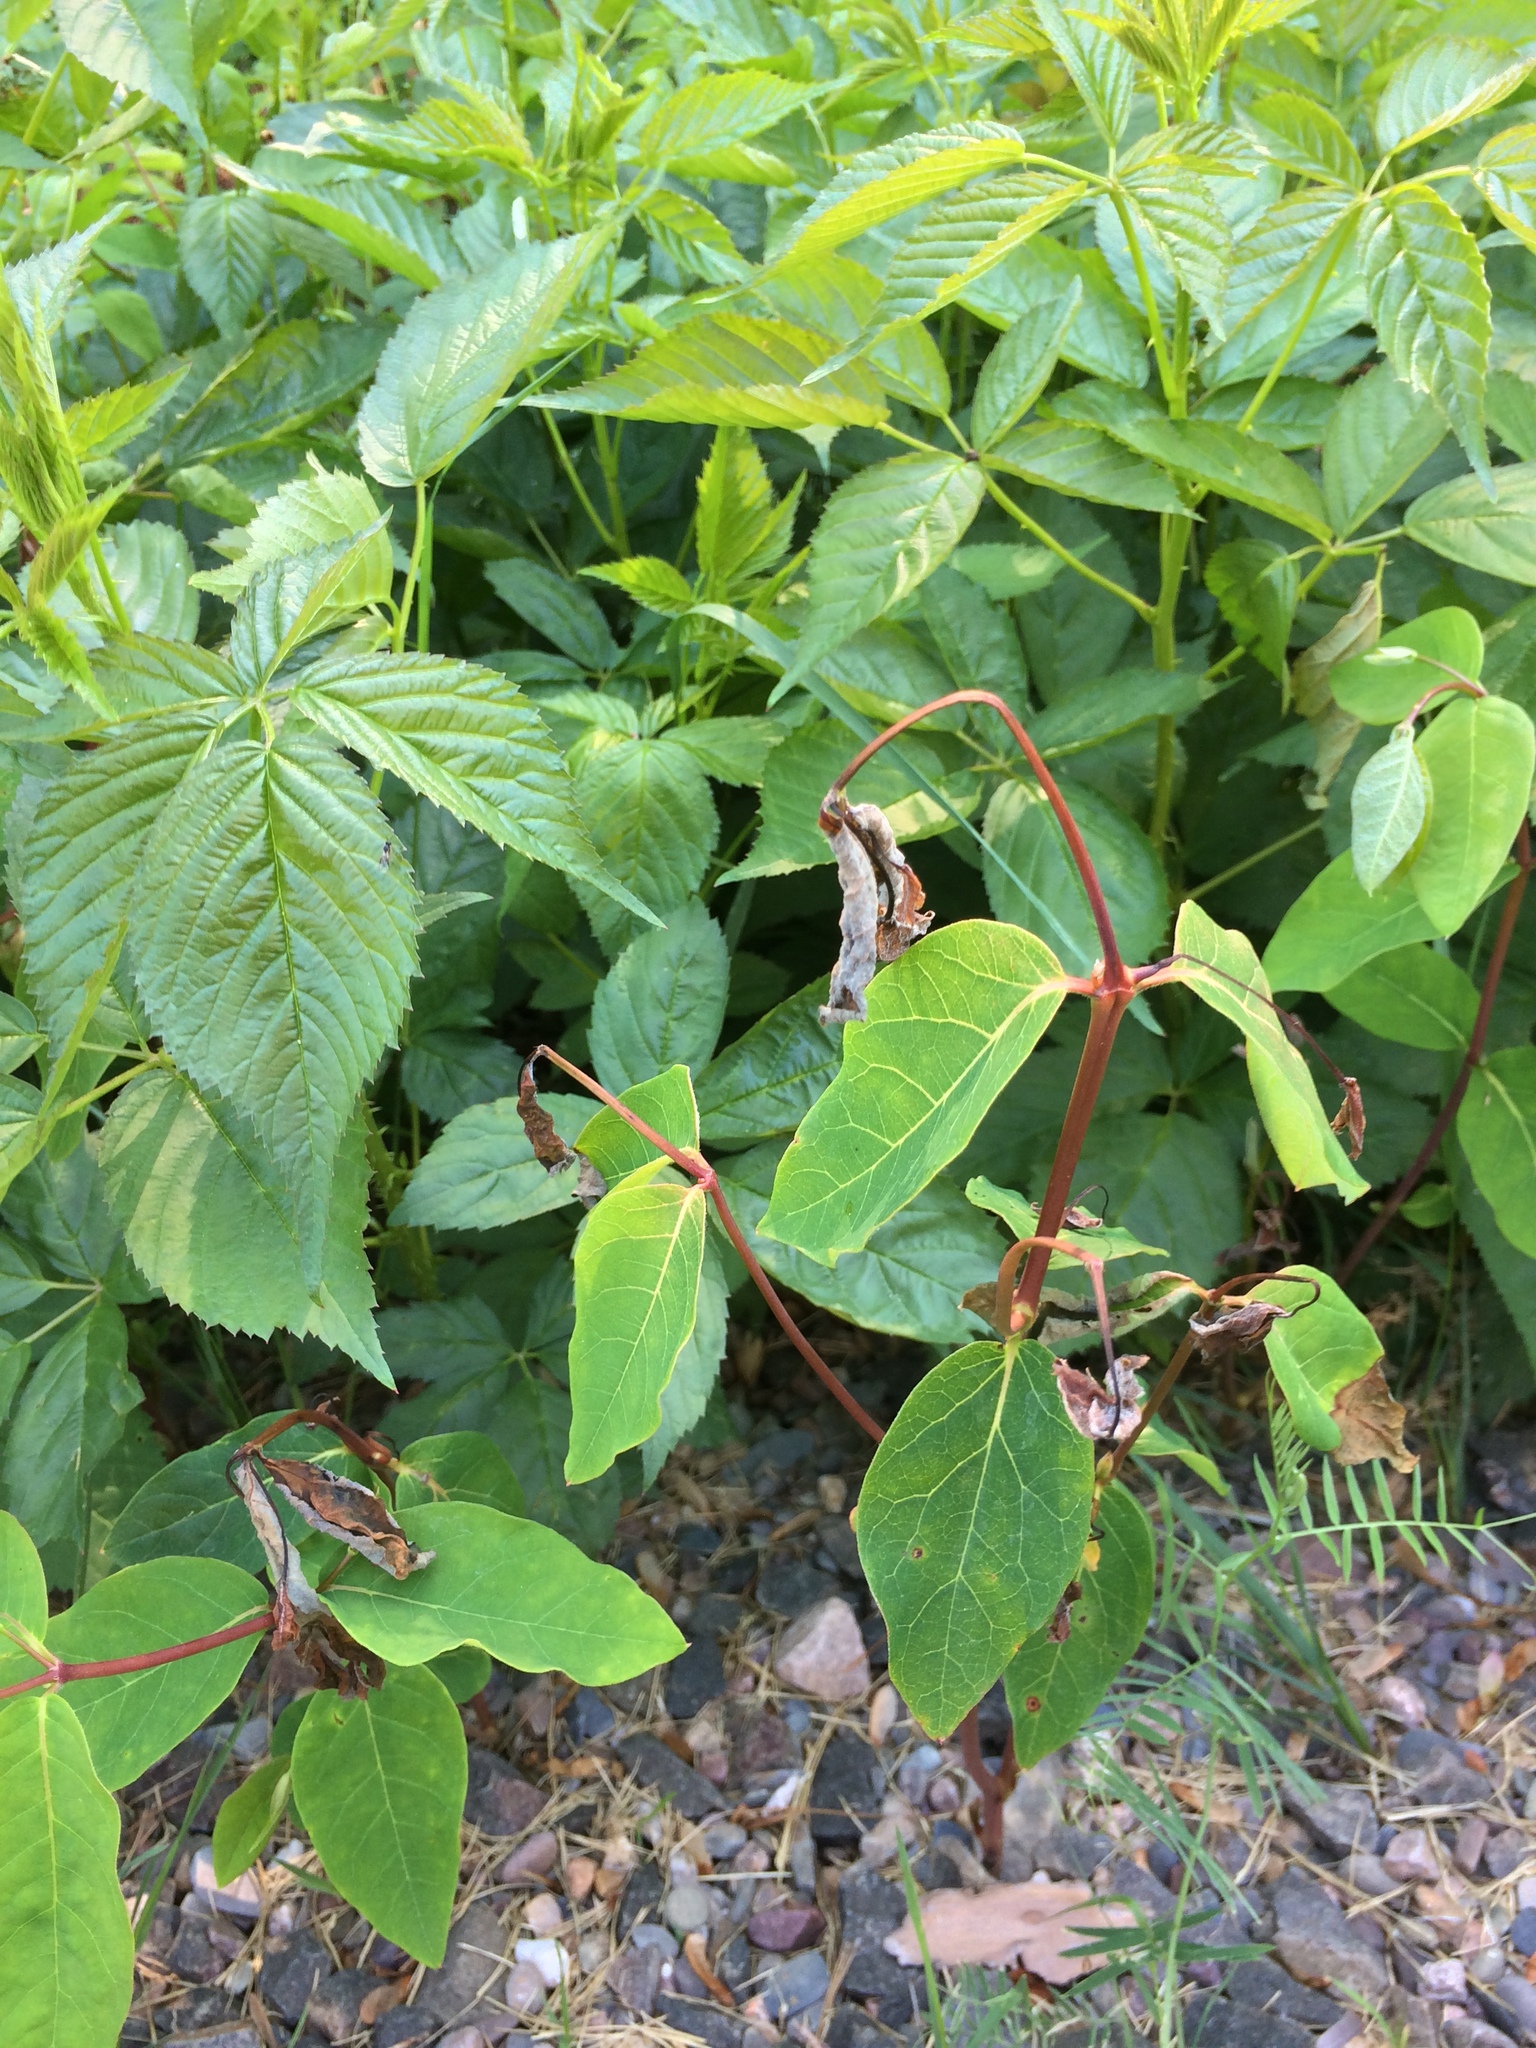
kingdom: Plantae
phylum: Tracheophyta
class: Magnoliopsida
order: Gentianales
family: Apocynaceae
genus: Apocynum
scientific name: Apocynum androsaemifolium
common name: Spreading dogbane
